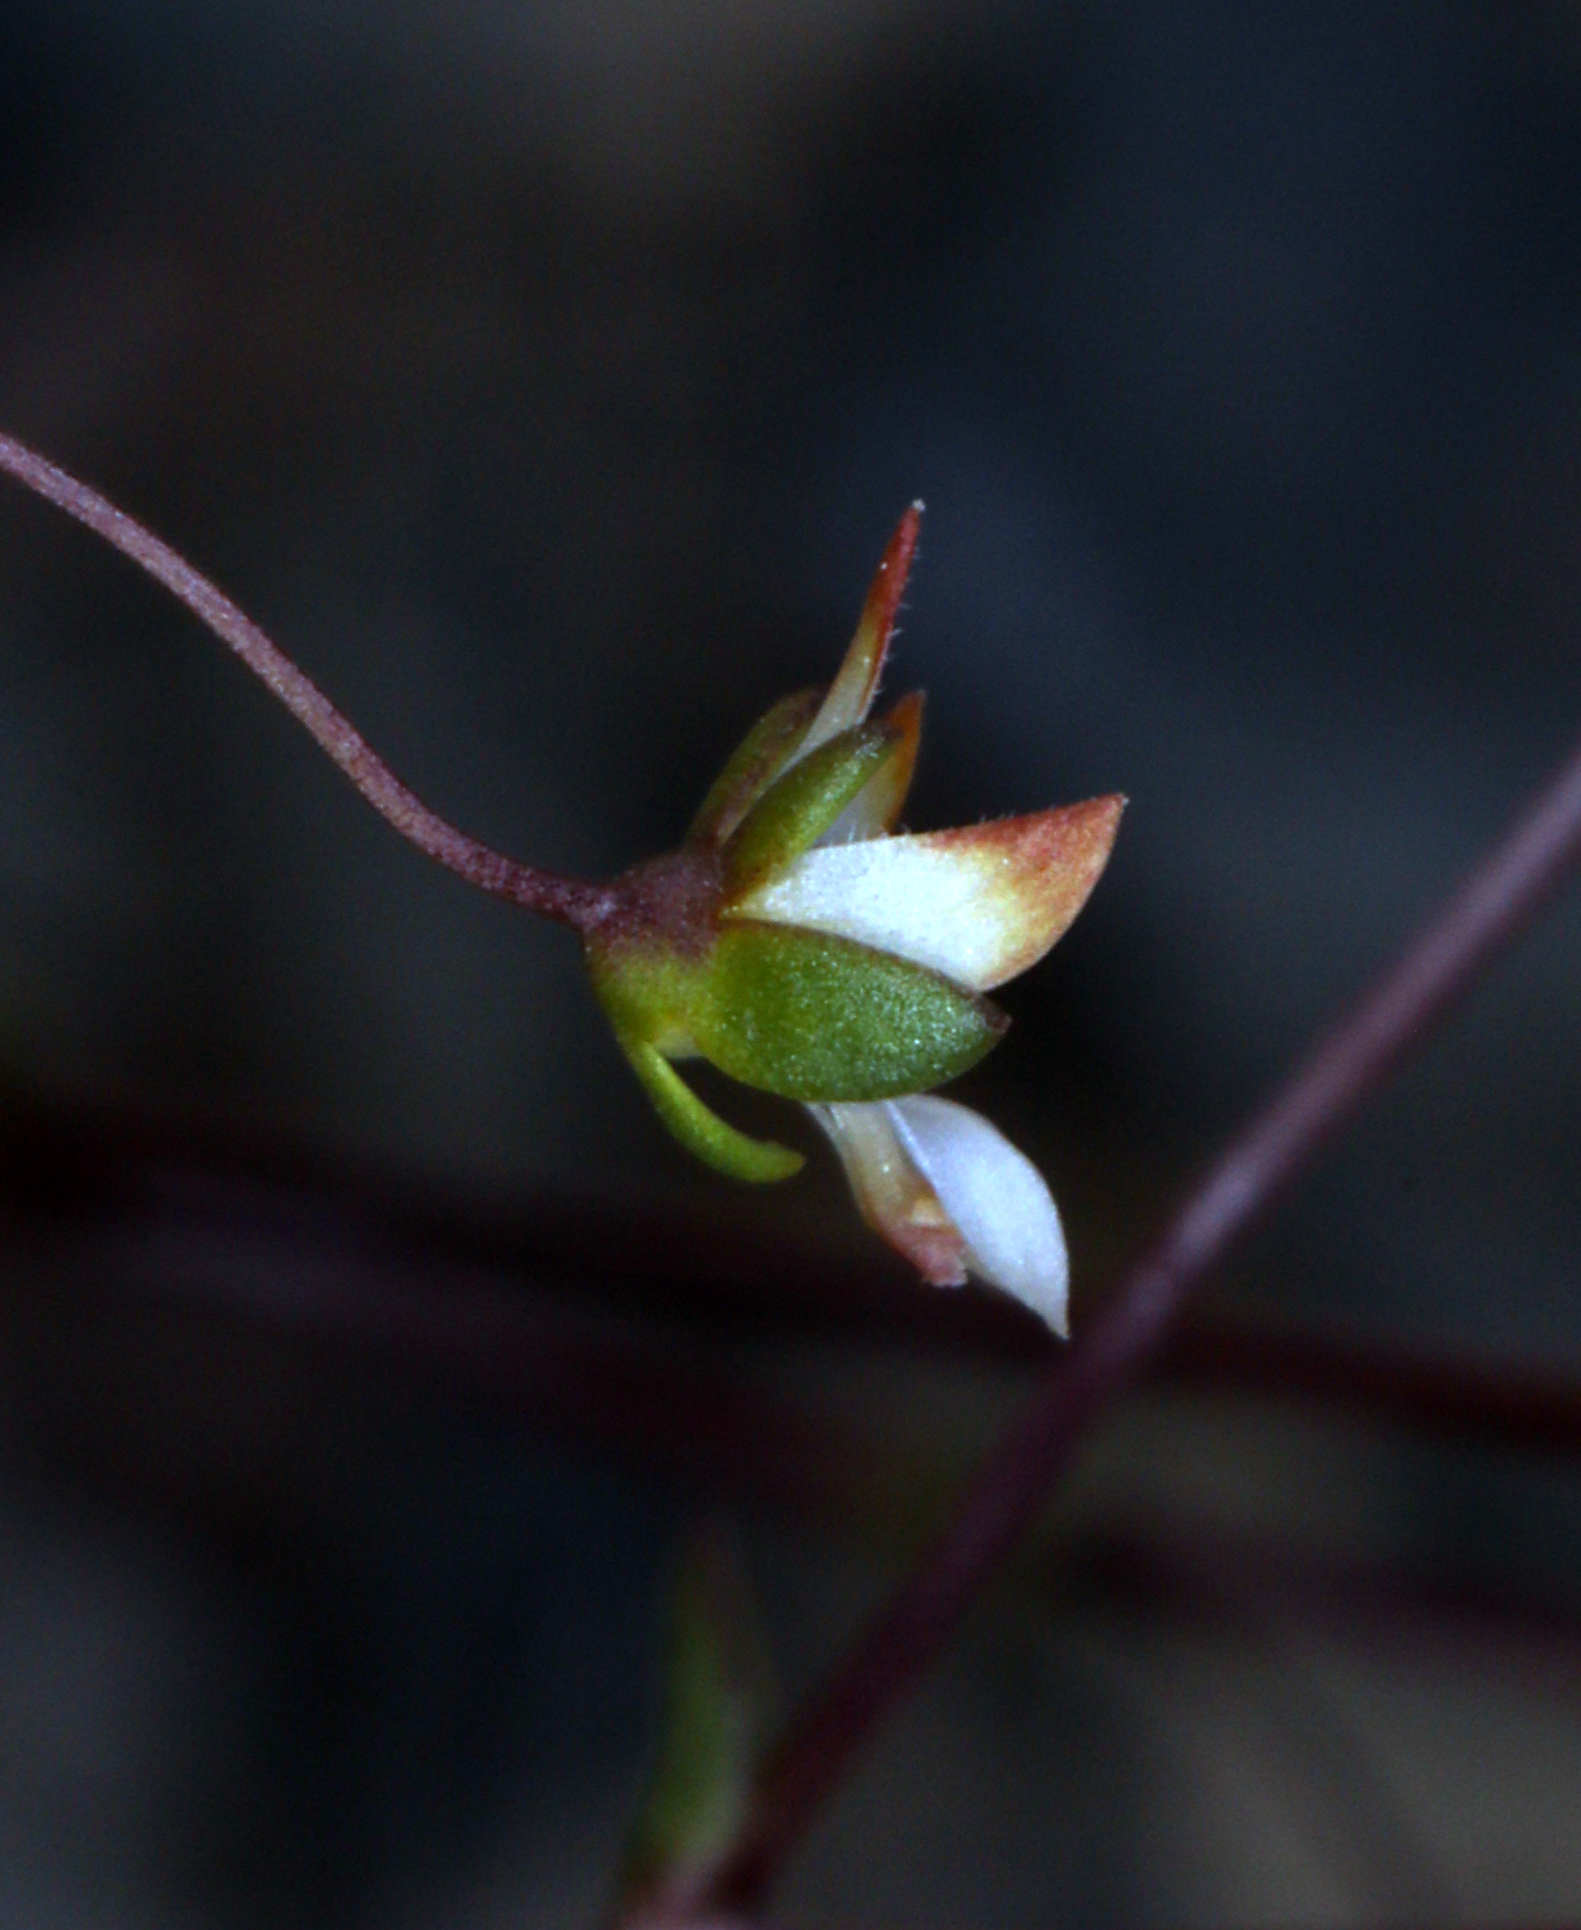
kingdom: Plantae
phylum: Tracheophyta
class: Magnoliopsida
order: Asterales
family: Campanulaceae
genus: Nemacladus
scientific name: Nemacladus morefieldii
